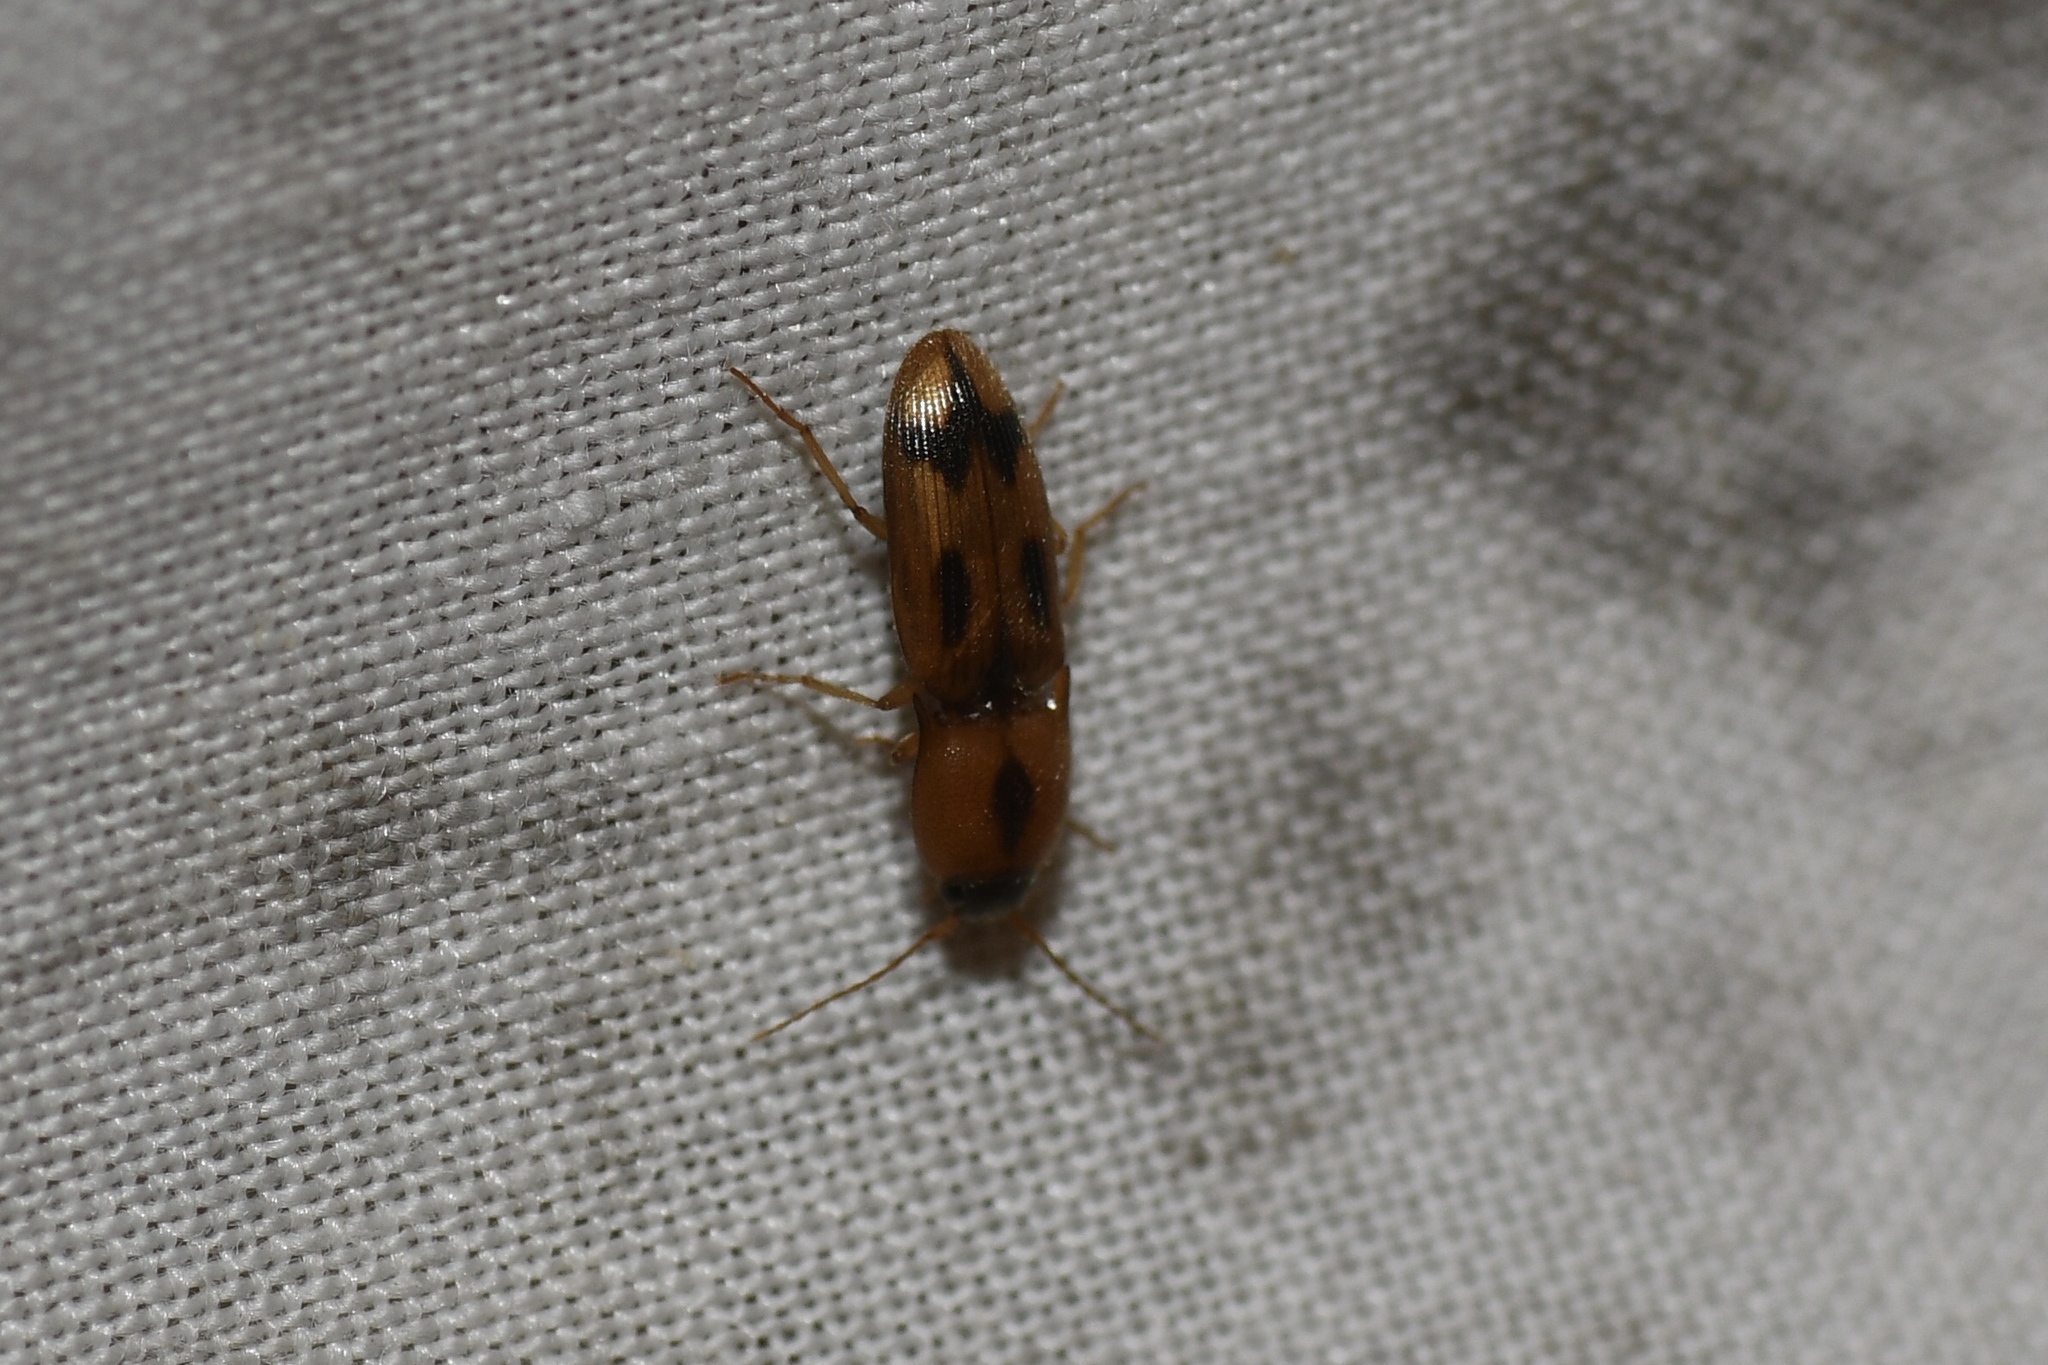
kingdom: Animalia
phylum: Arthropoda
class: Insecta
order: Coleoptera
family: Elateridae
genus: Aeolus
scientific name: Aeolus mellillus
